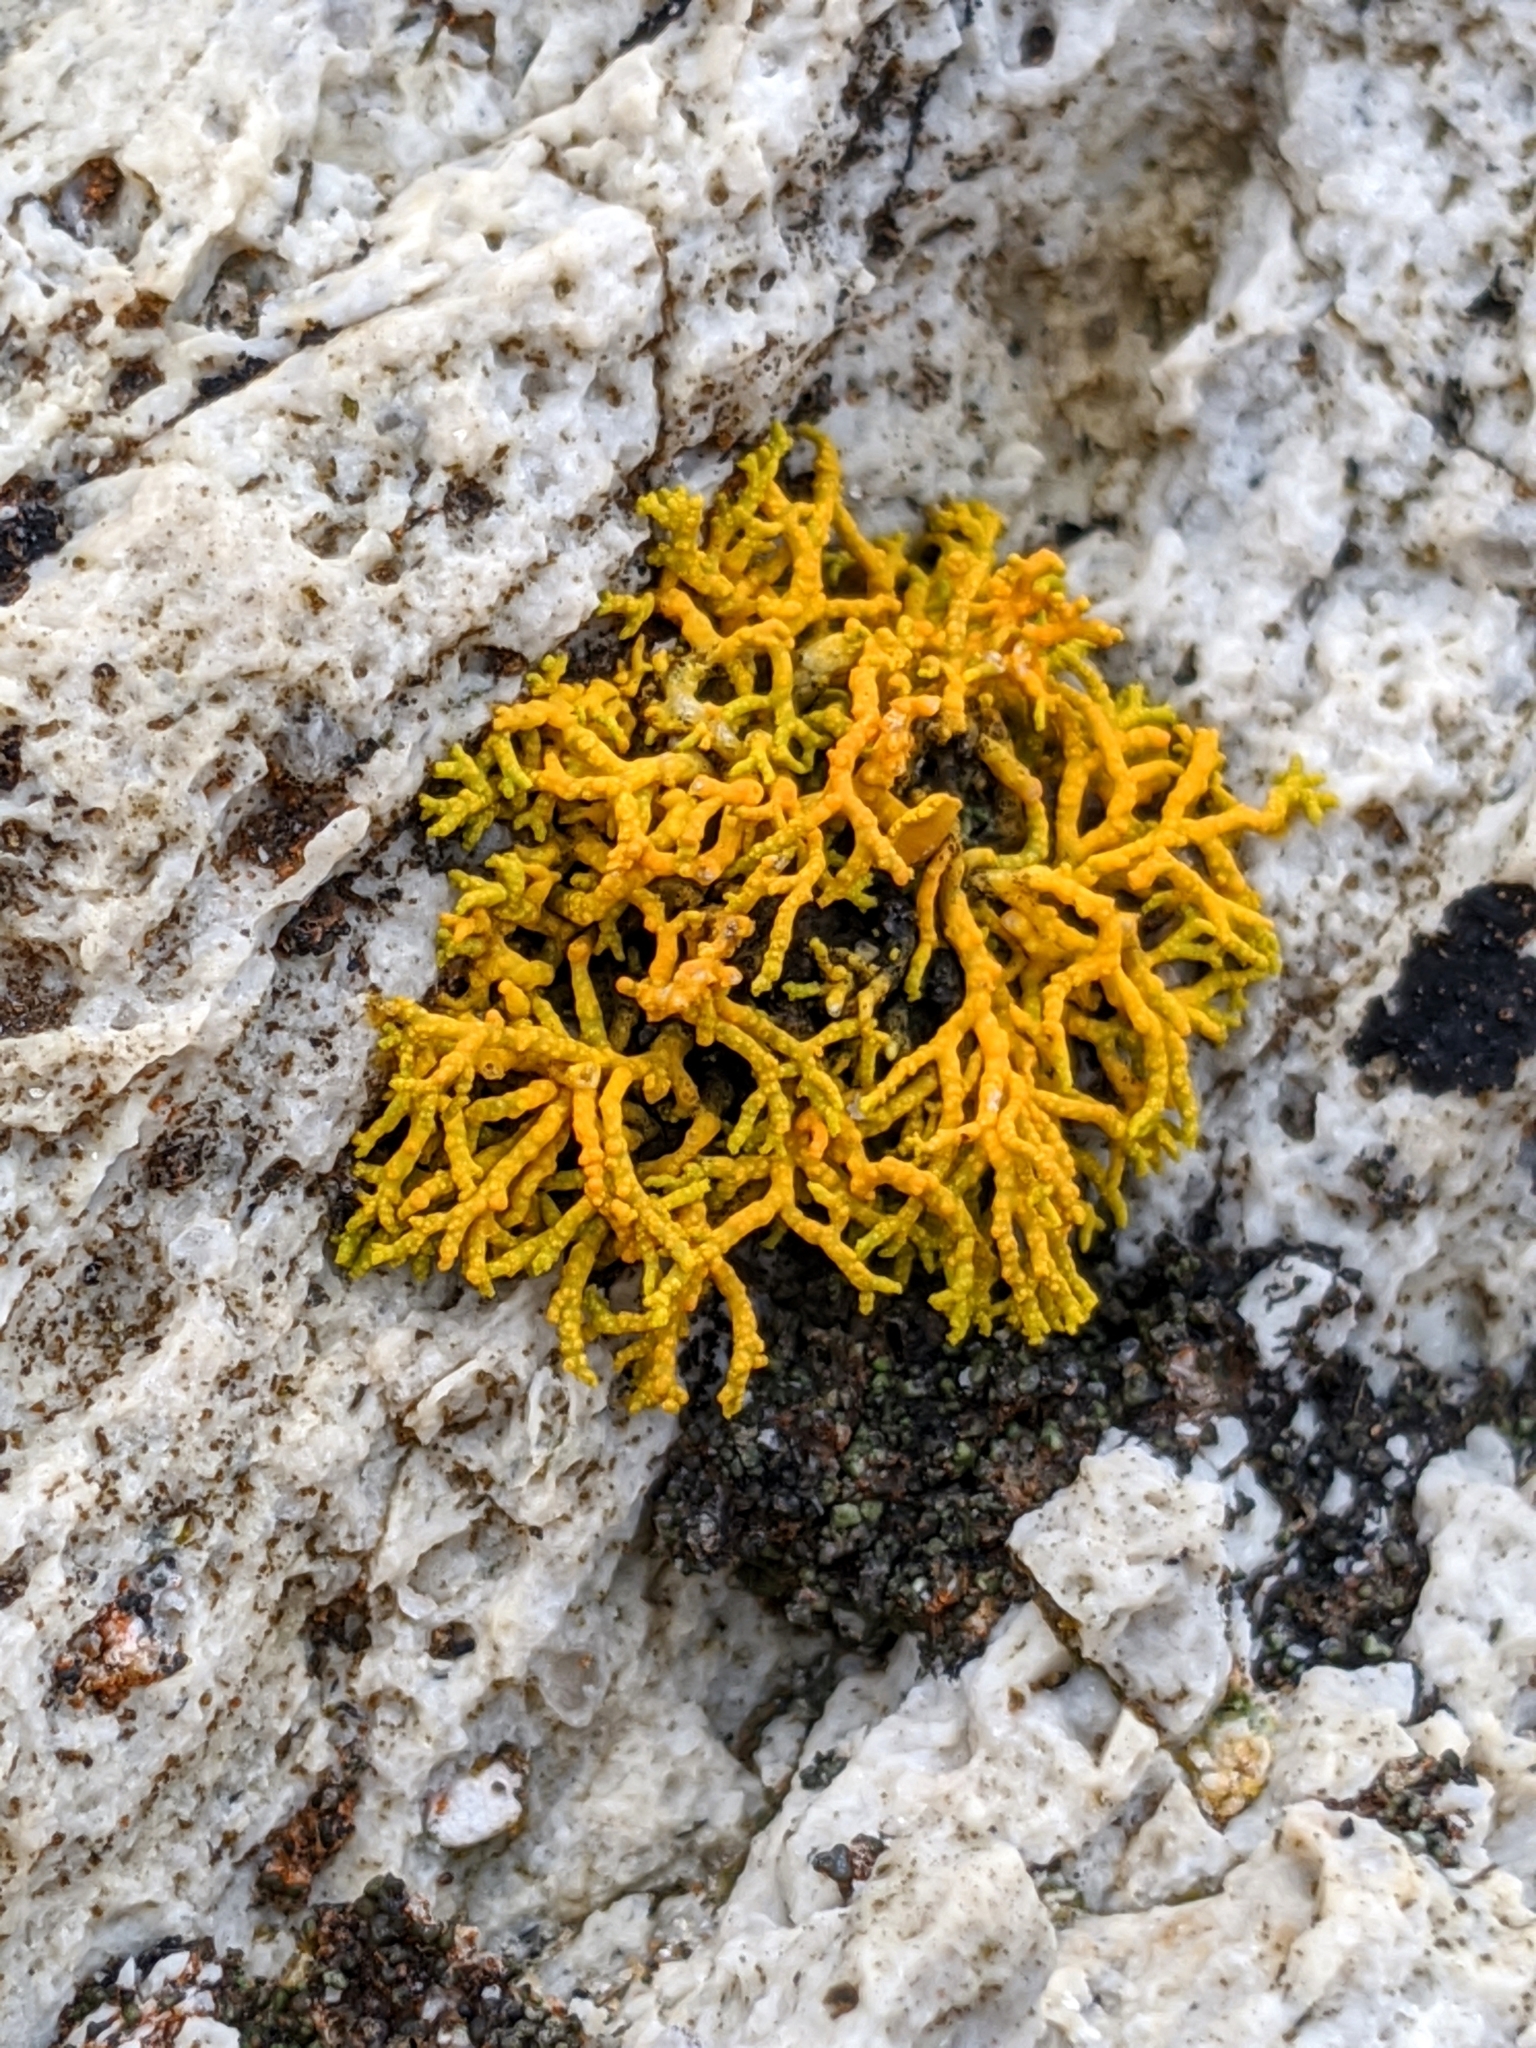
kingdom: Fungi
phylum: Ascomycota
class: Lecanoromycetes
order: Teloschistales
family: Teloschistaceae
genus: Polycauliona
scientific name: Polycauliona coralloides
